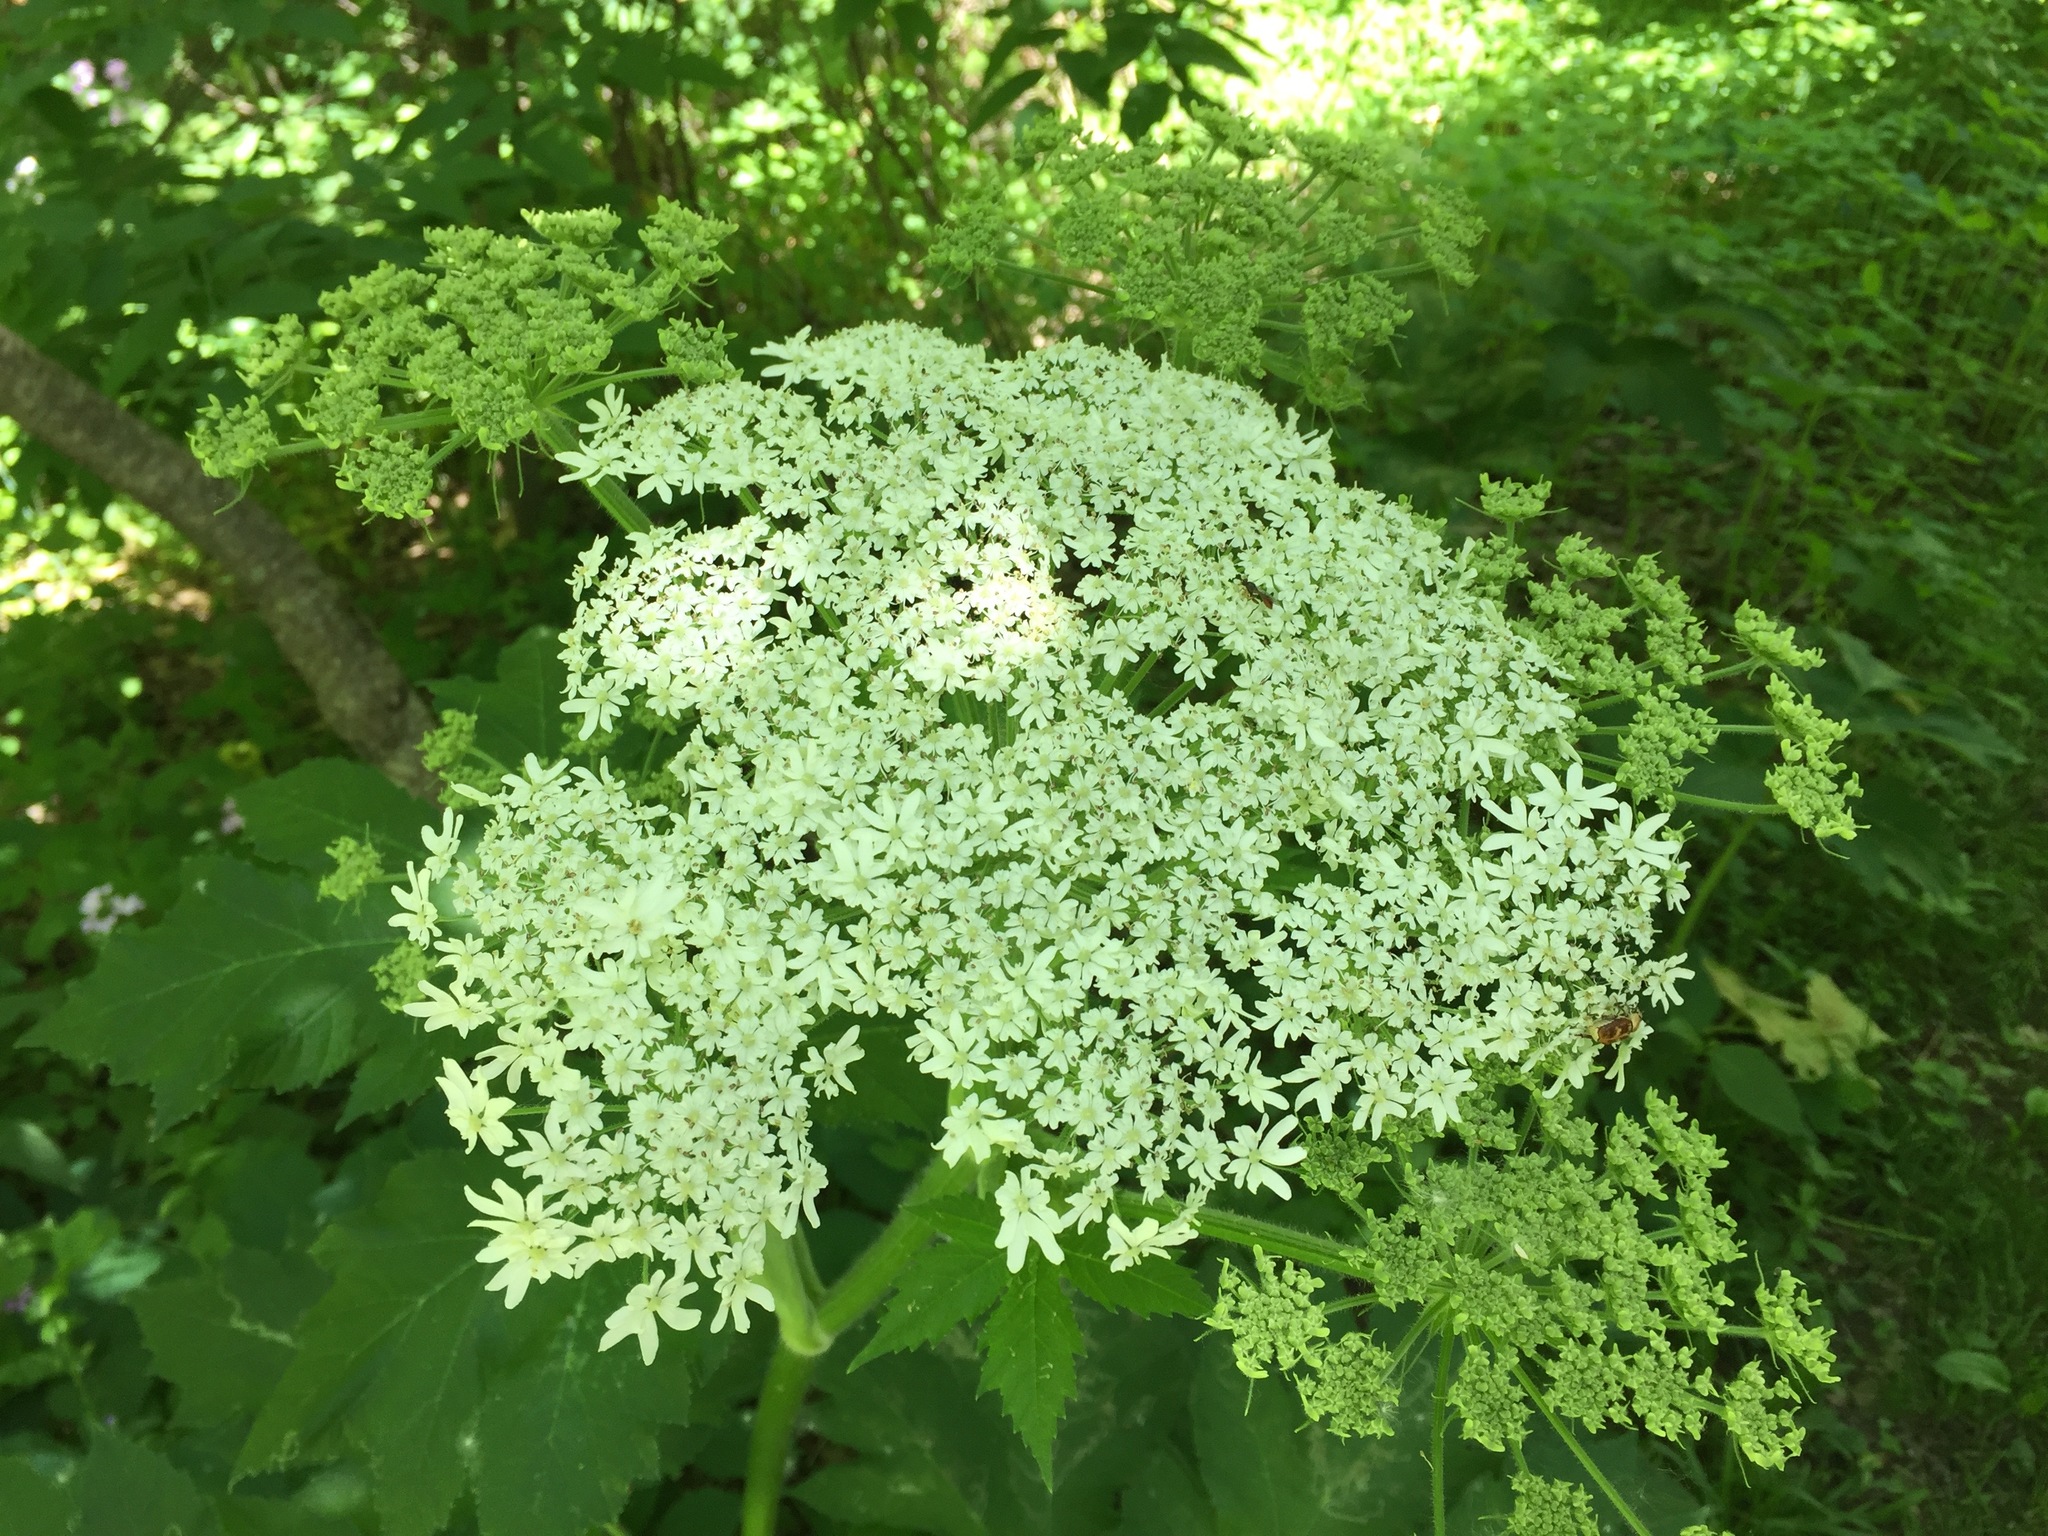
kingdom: Plantae
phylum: Tracheophyta
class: Magnoliopsida
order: Apiales
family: Apiaceae
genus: Heracleum
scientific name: Heracleum maximum
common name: American cow parsnip
